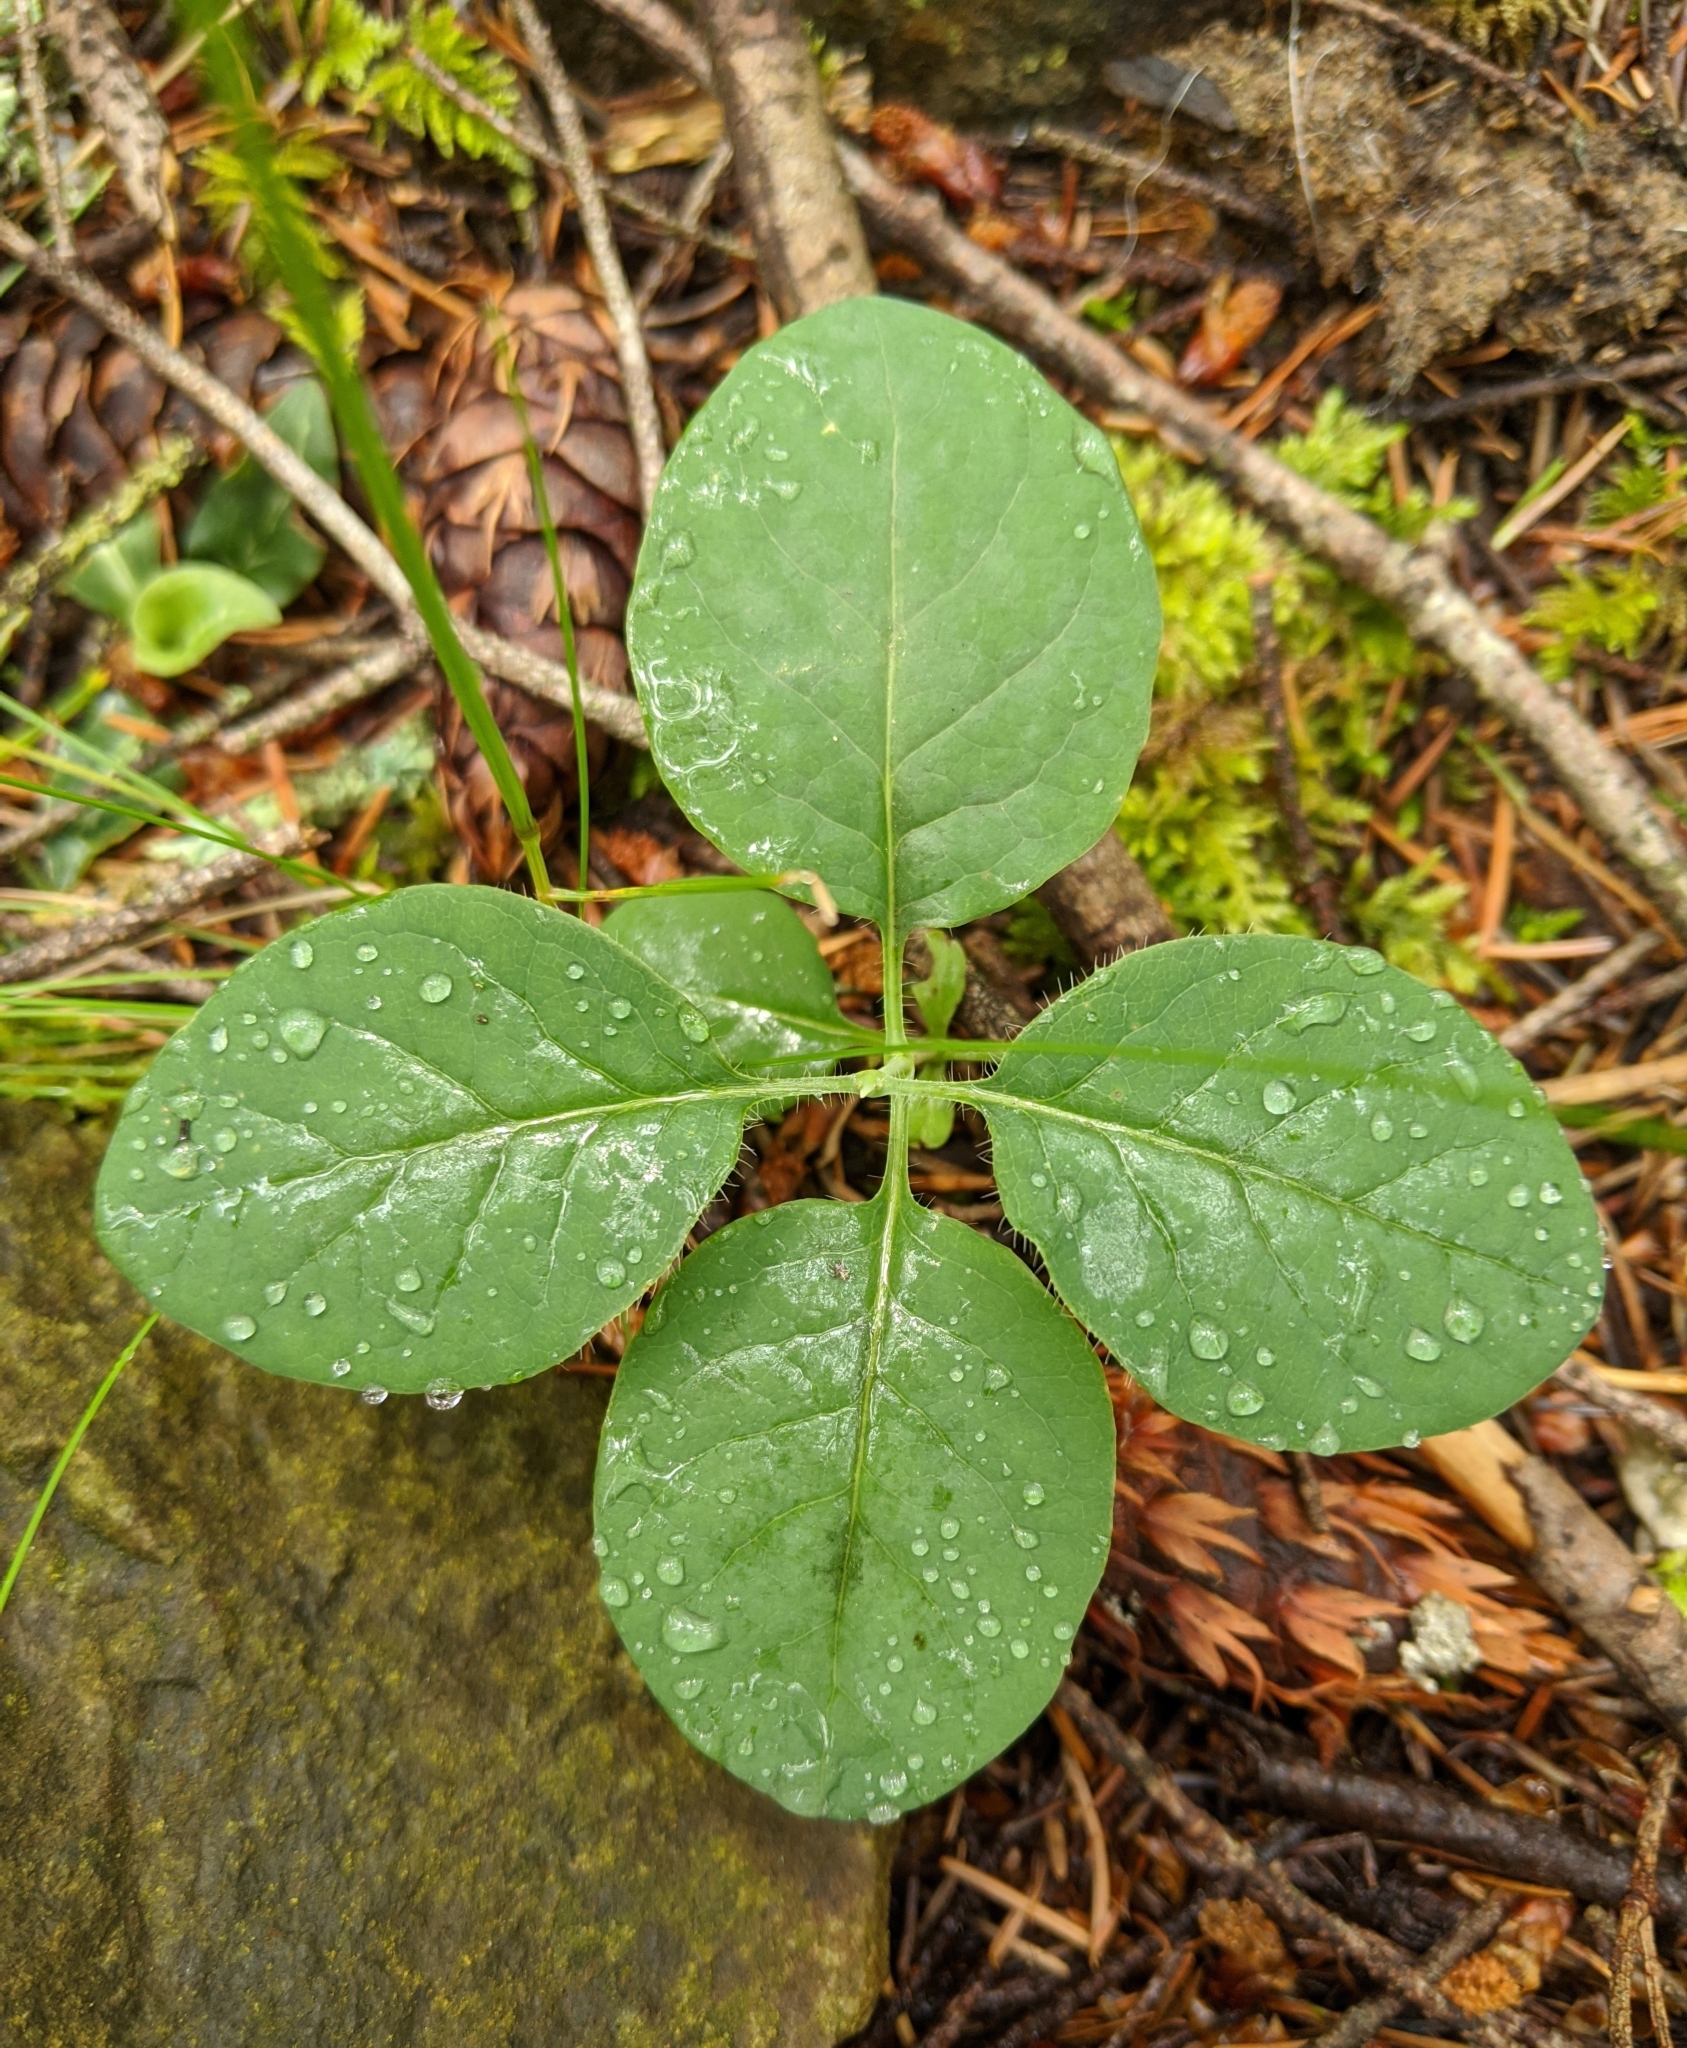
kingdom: Plantae
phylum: Tracheophyta
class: Magnoliopsida
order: Dipsacales
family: Caprifoliaceae
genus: Lonicera
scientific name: Lonicera ciliosa
